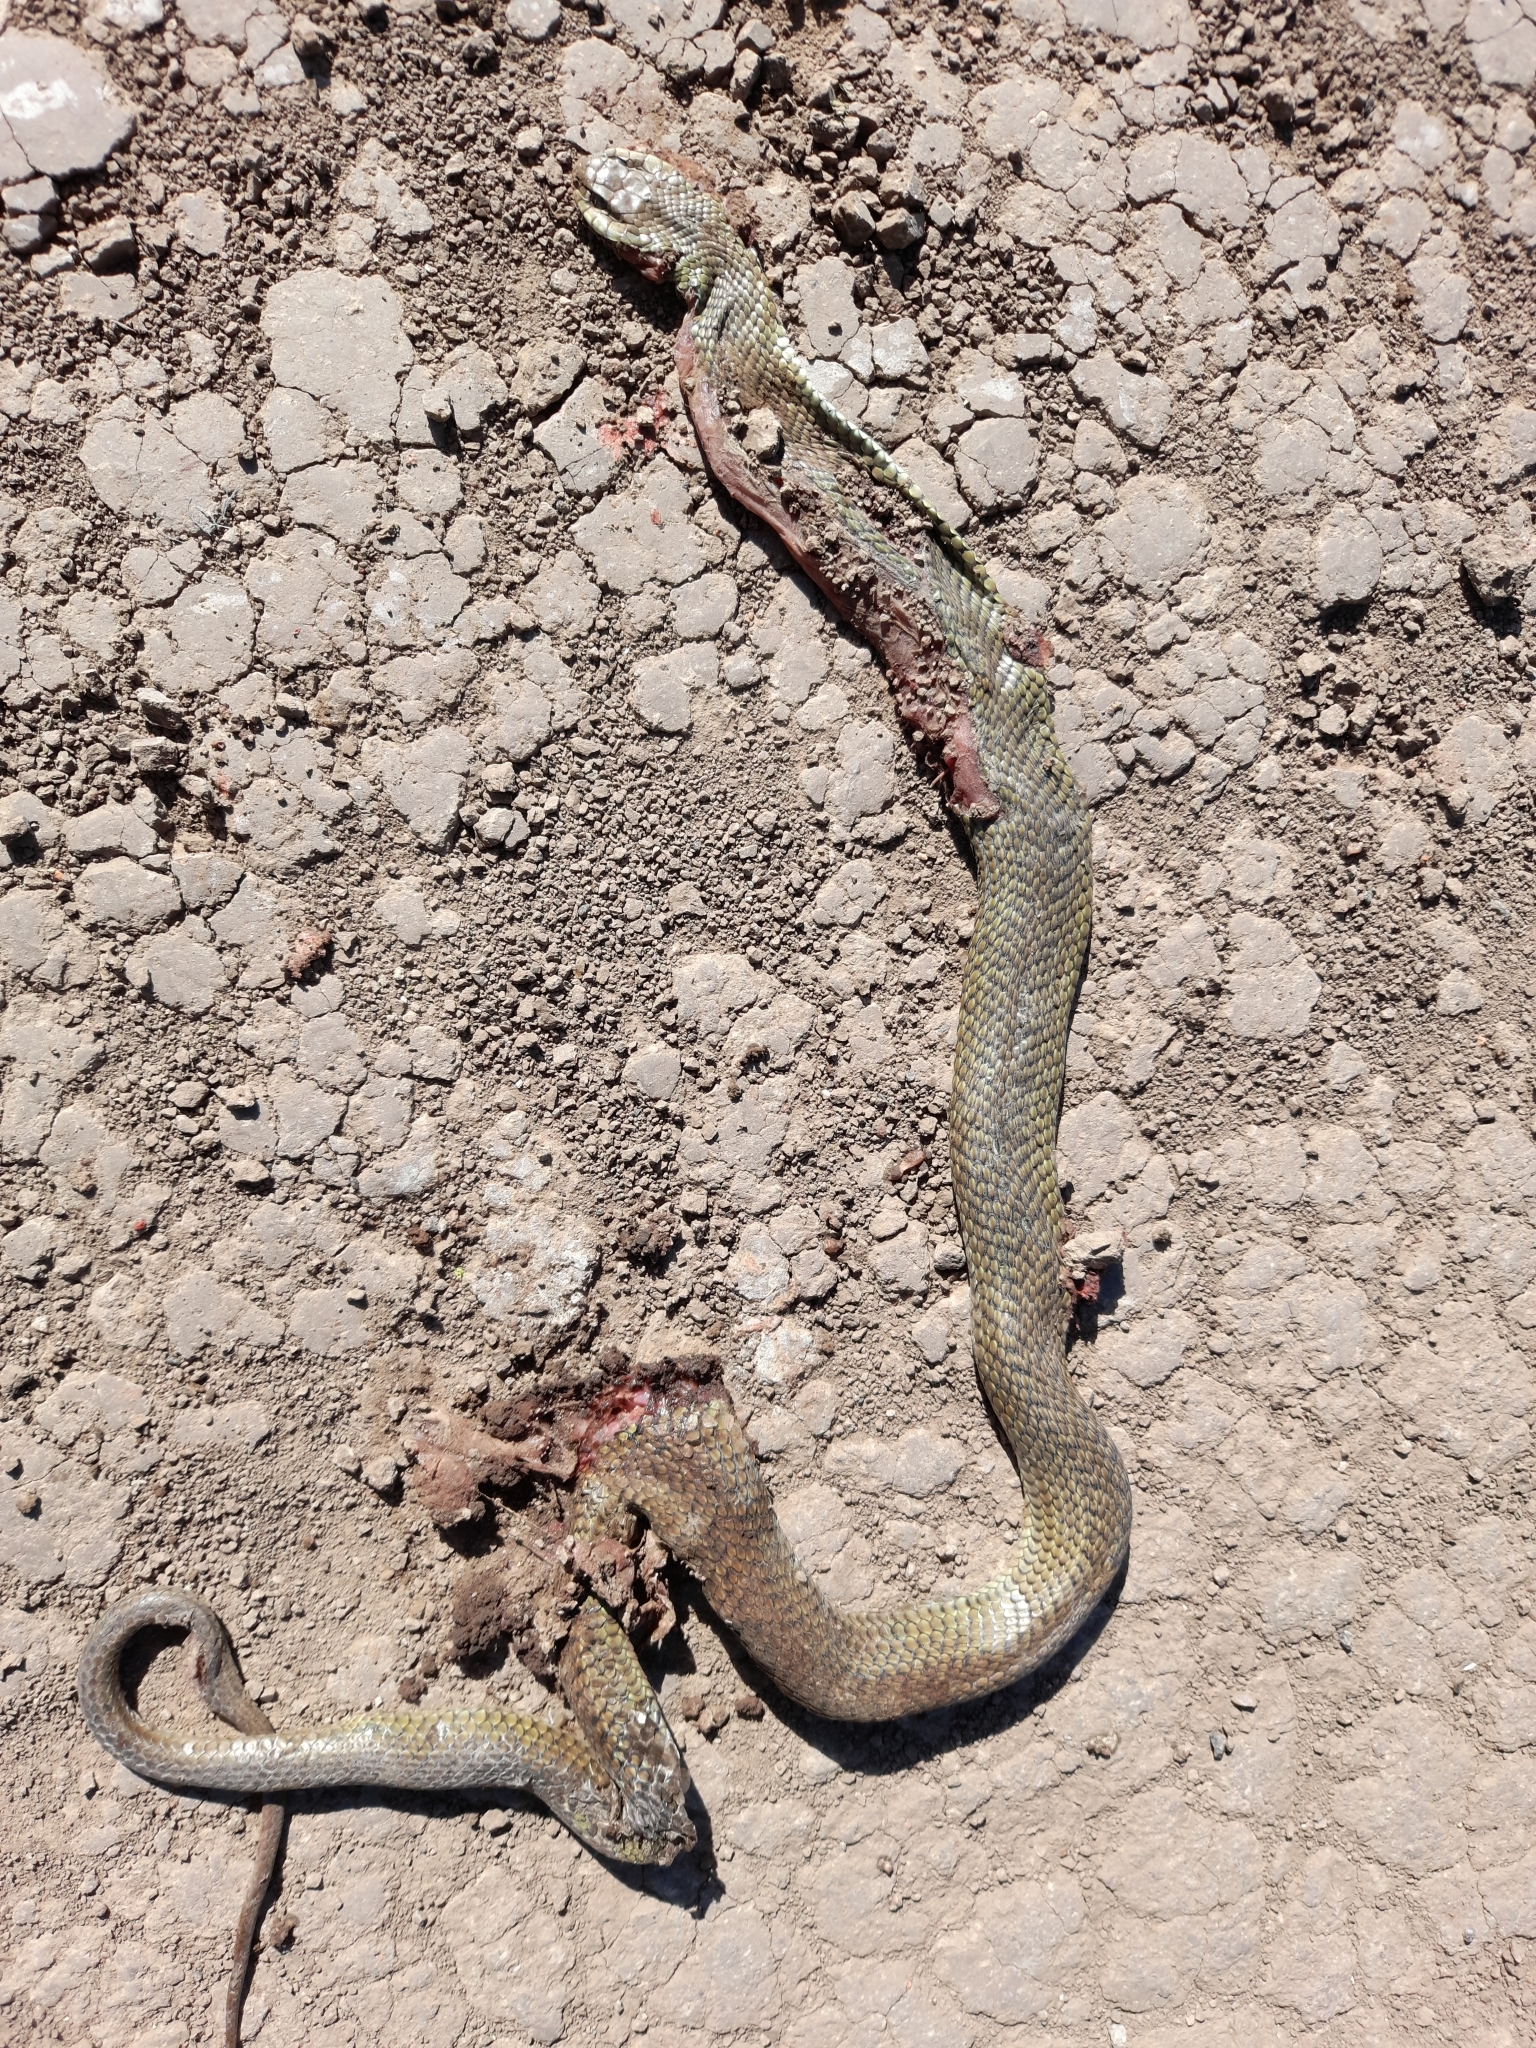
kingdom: Animalia
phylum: Chordata
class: Squamata
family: Colubridae
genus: Philodryas
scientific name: Philodryas patagoniensis
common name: Patagonia green racer
